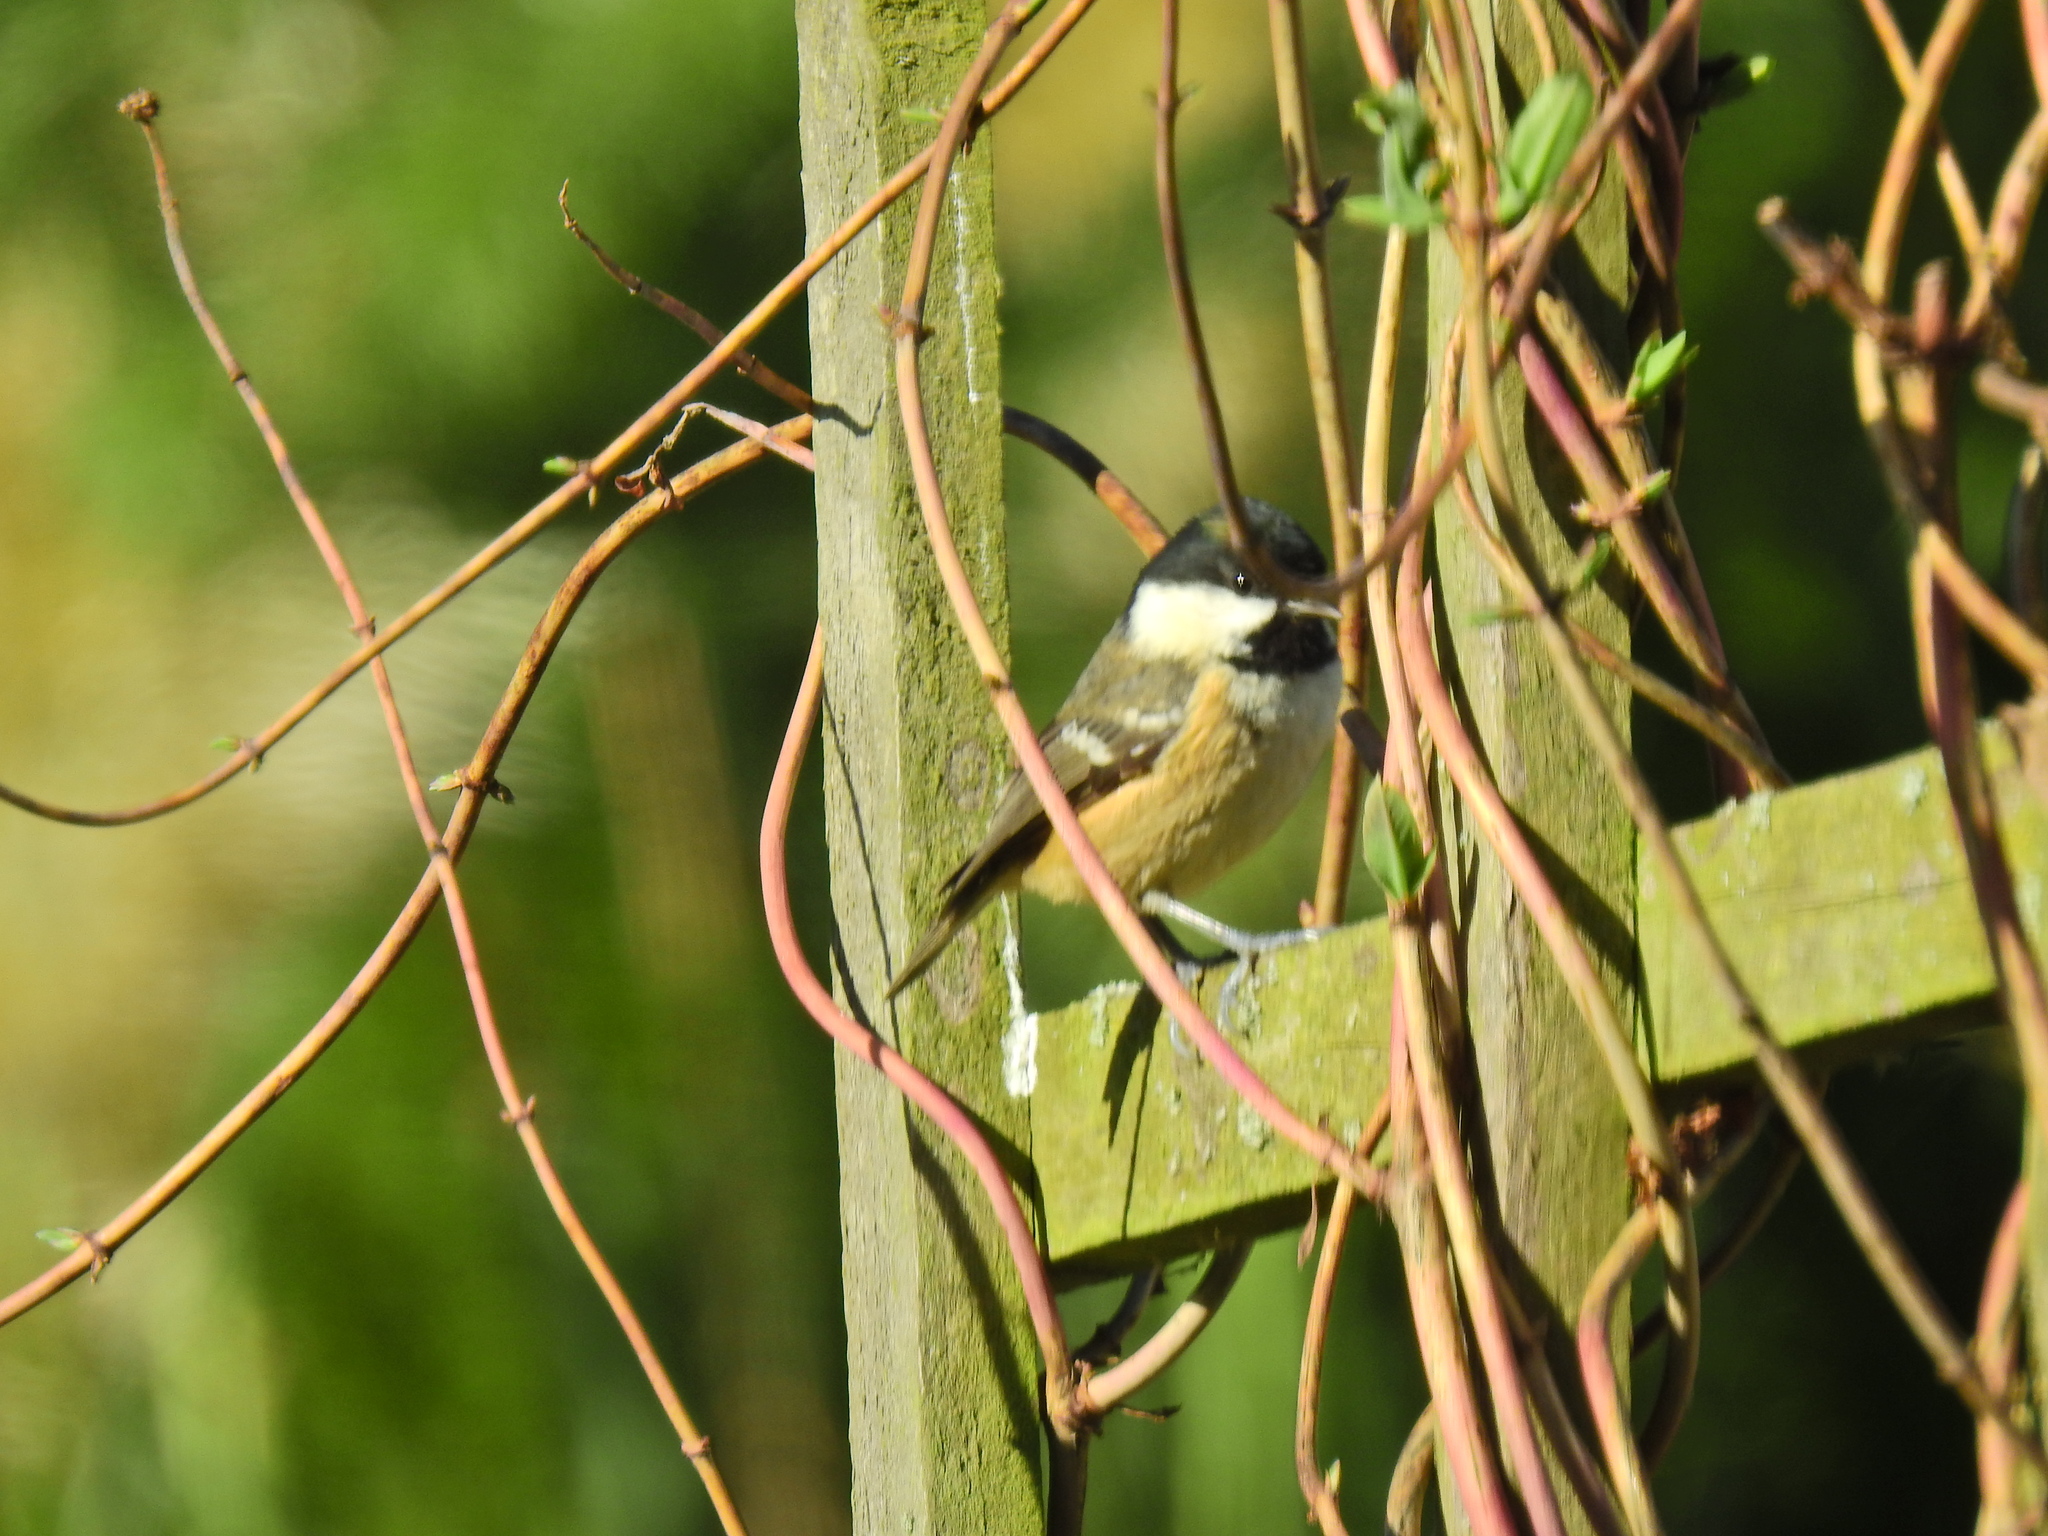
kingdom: Animalia
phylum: Chordata
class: Aves
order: Passeriformes
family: Paridae
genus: Periparus
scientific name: Periparus ater
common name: Coal tit
